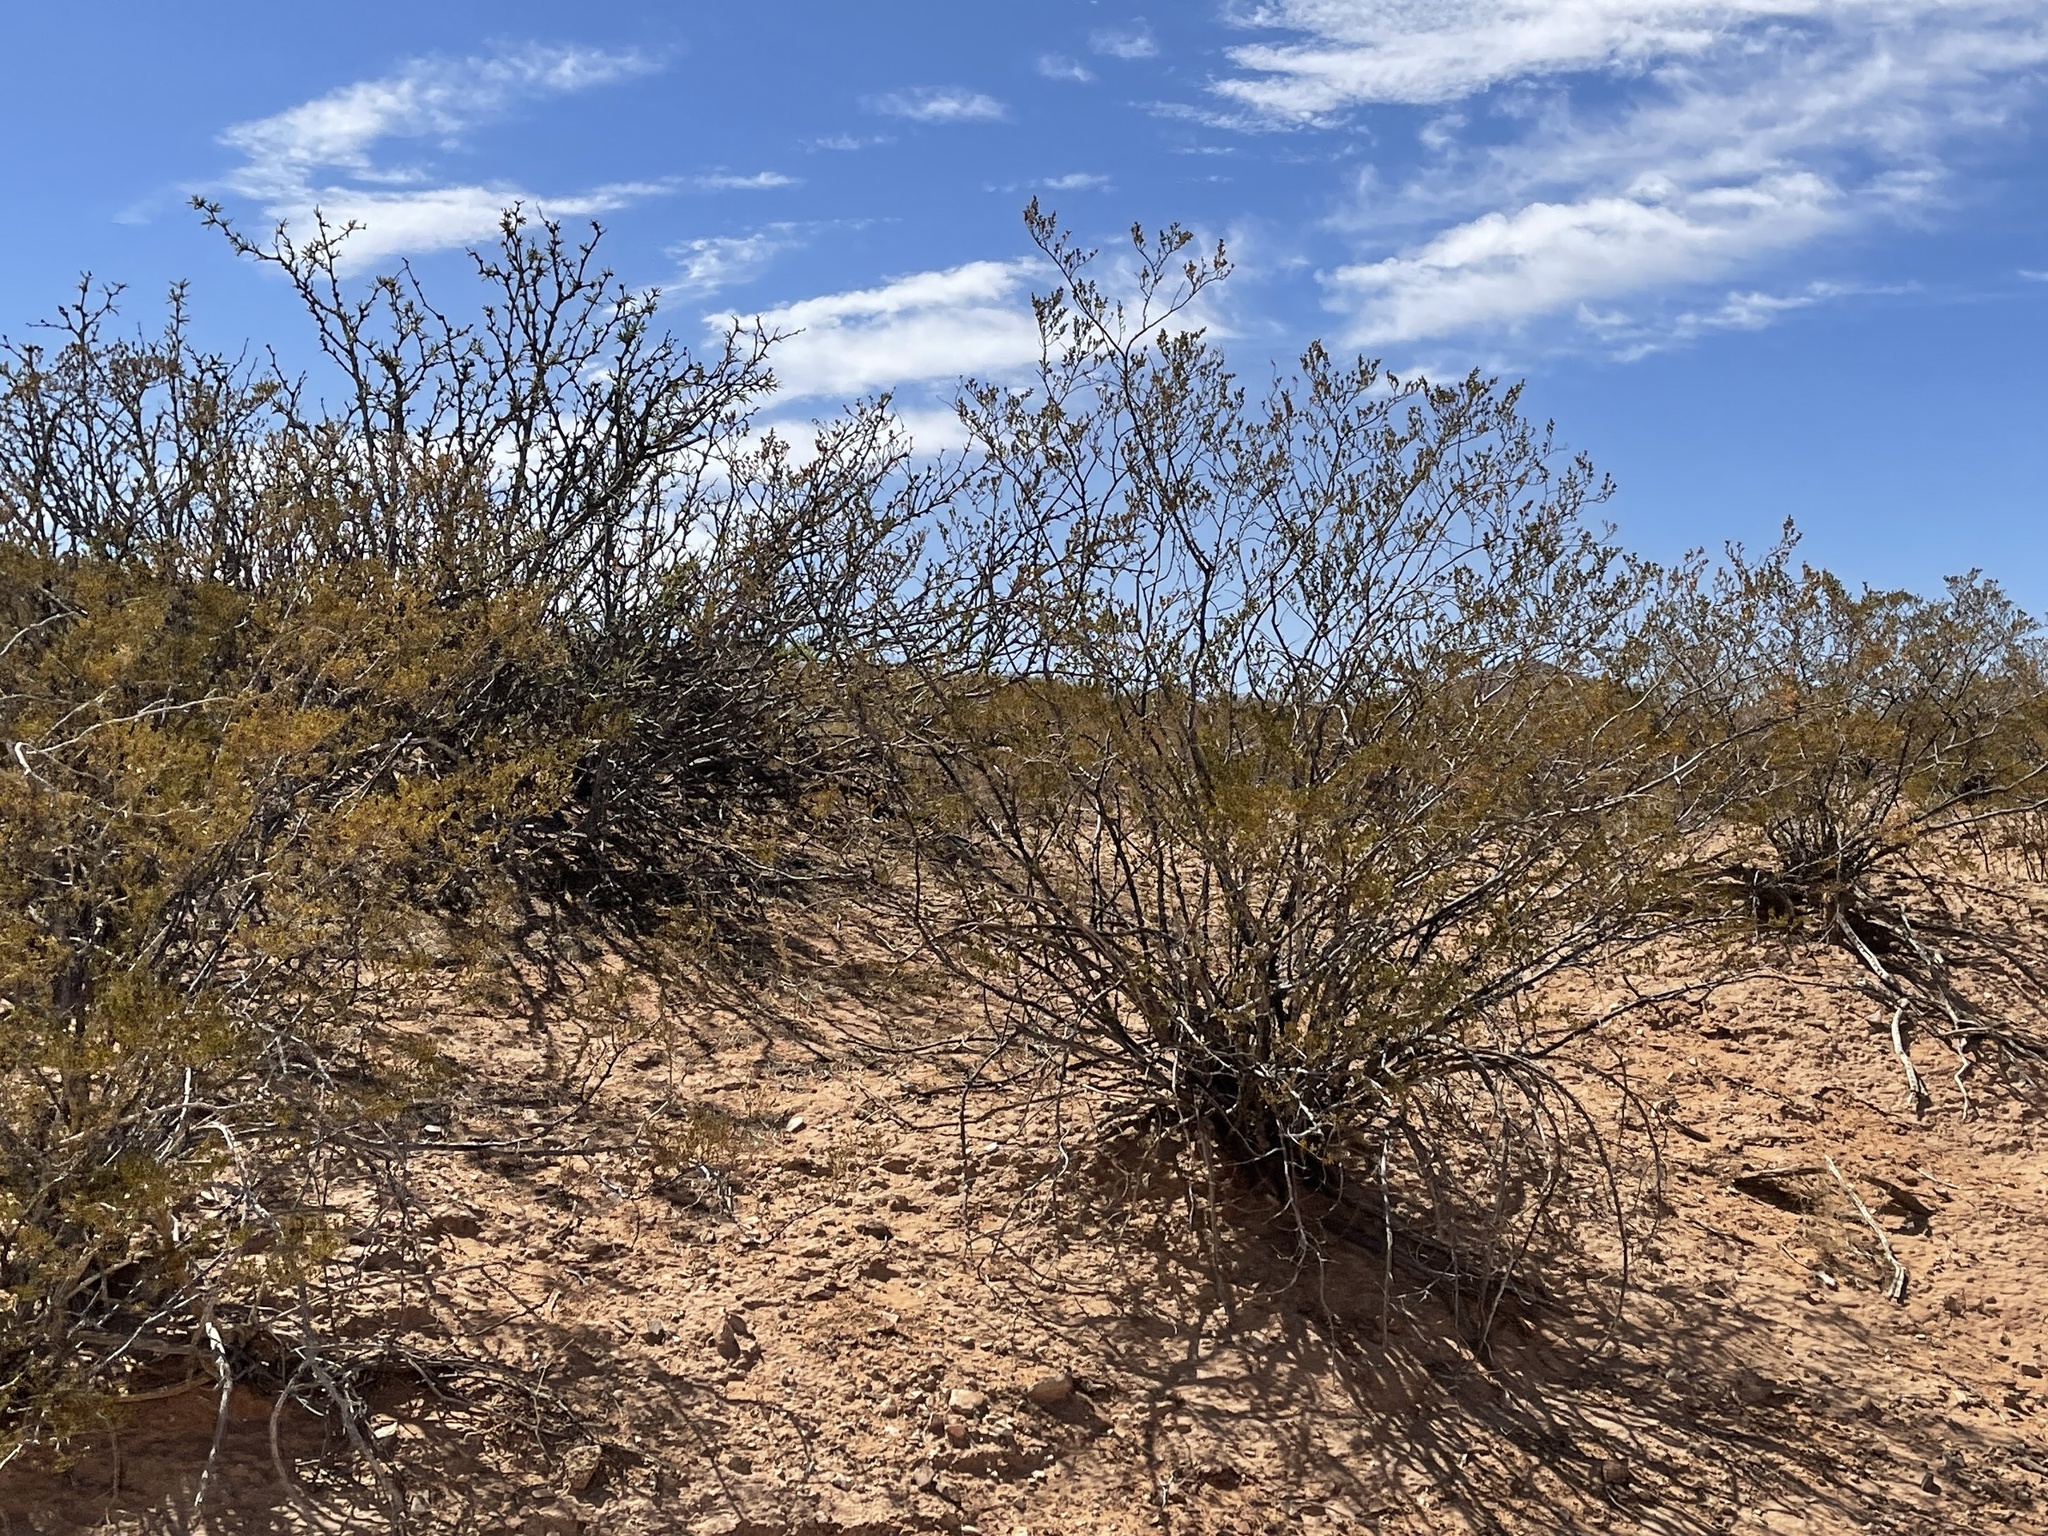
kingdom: Plantae
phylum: Tracheophyta
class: Magnoliopsida
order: Zygophyllales
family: Zygophyllaceae
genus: Larrea
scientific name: Larrea tridentata
